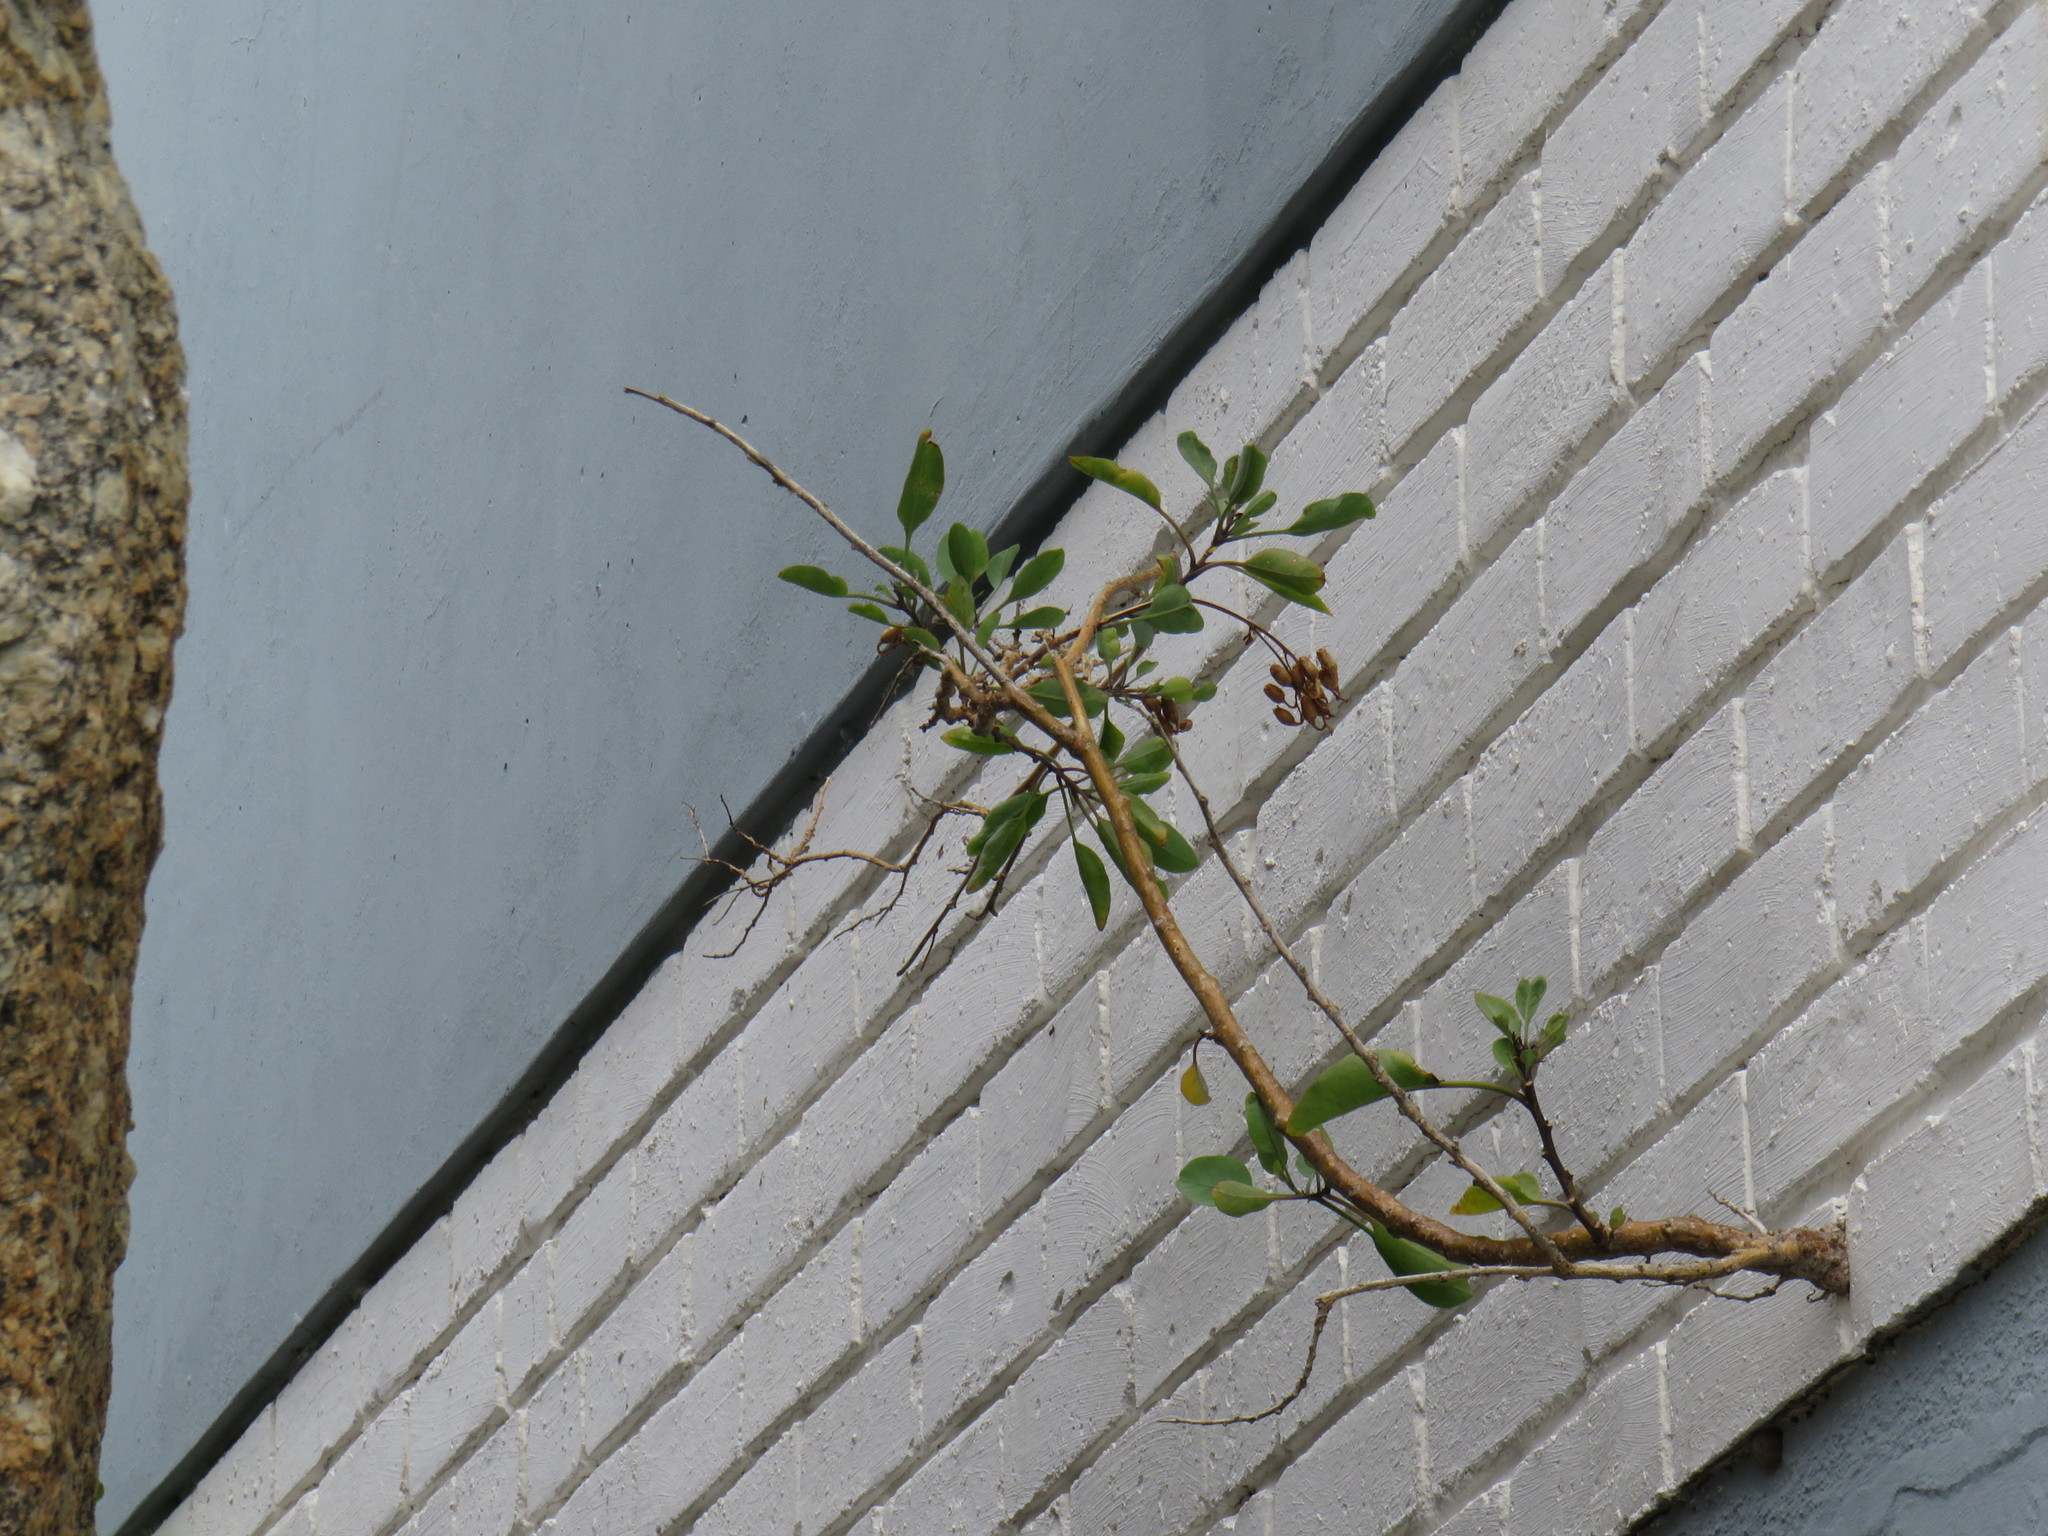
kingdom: Plantae
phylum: Tracheophyta
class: Magnoliopsida
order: Solanales
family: Solanaceae
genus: Nicotiana
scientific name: Nicotiana glauca
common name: Tree tobacco
